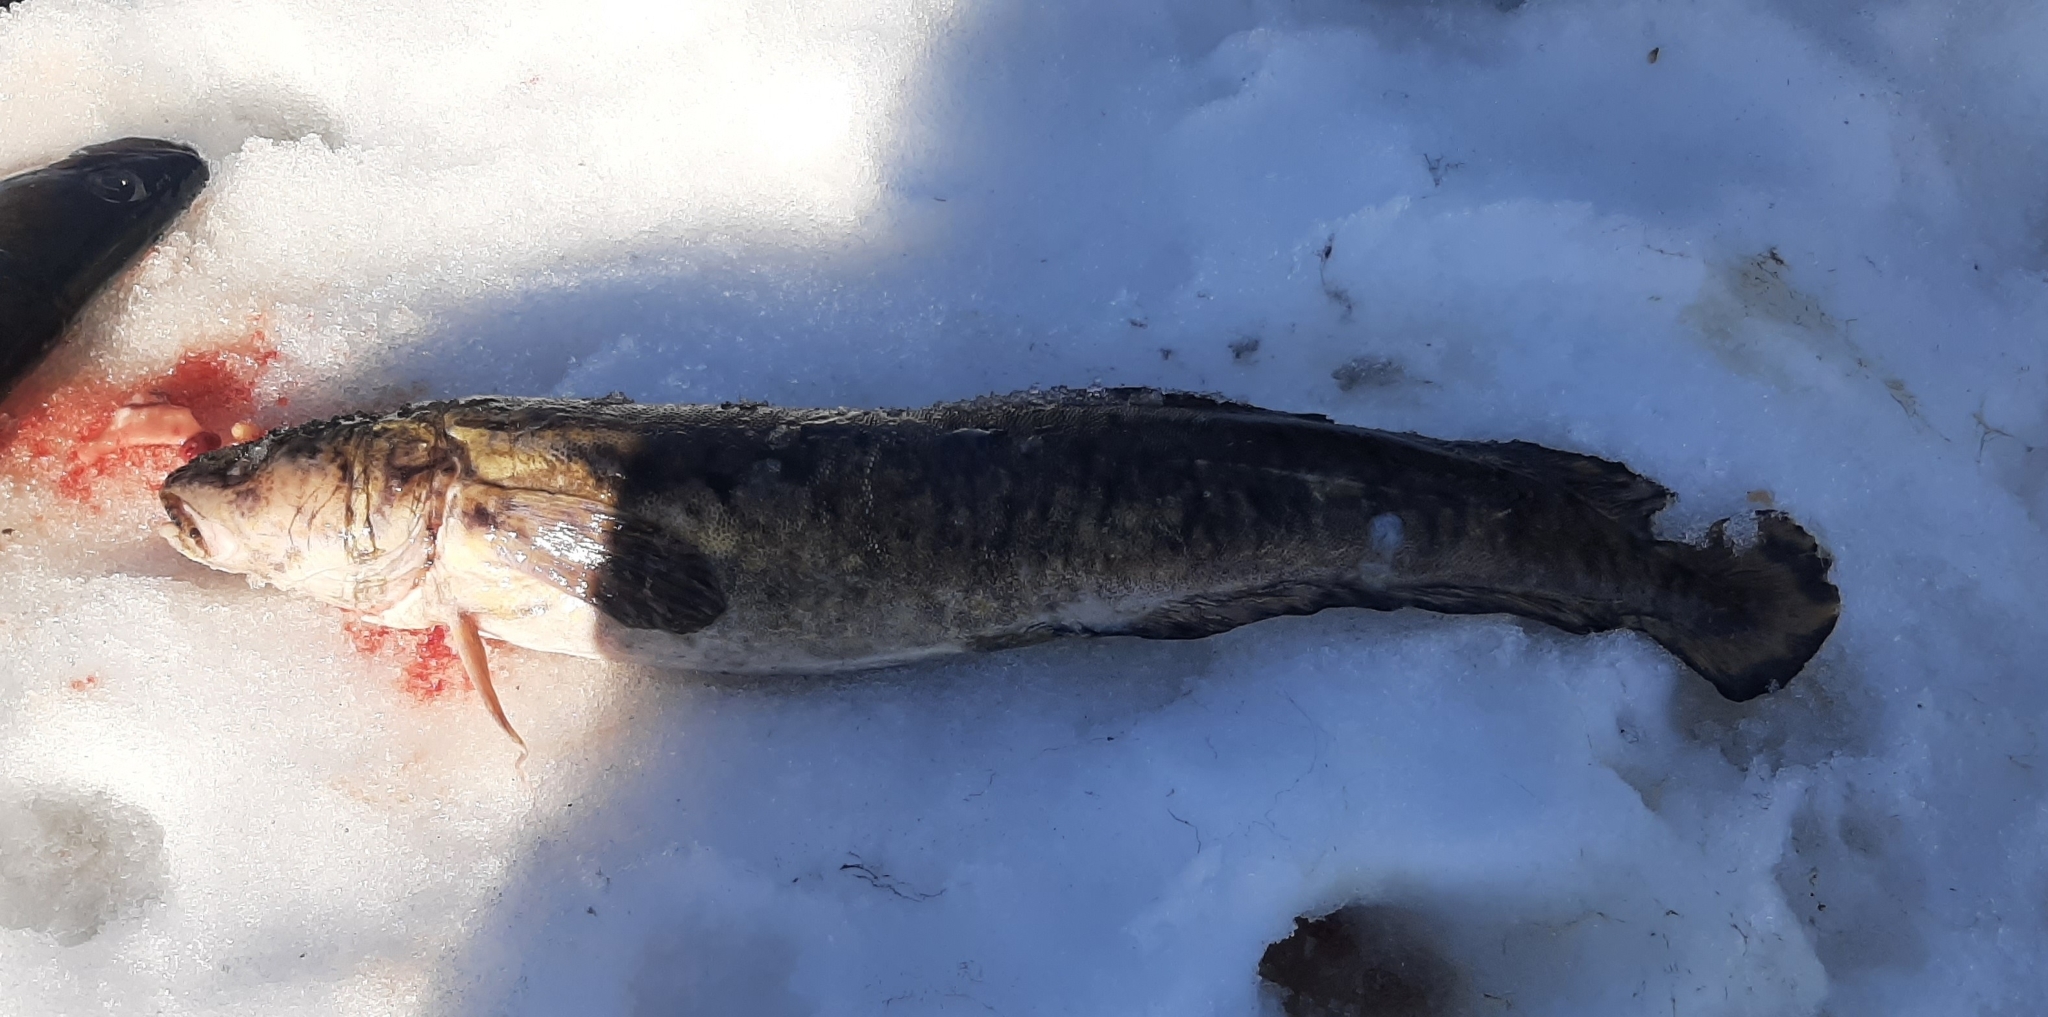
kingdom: Animalia
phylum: Chordata
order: Gadiformes
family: Lotidae
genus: Lota
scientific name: Lota lota
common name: Burbot
